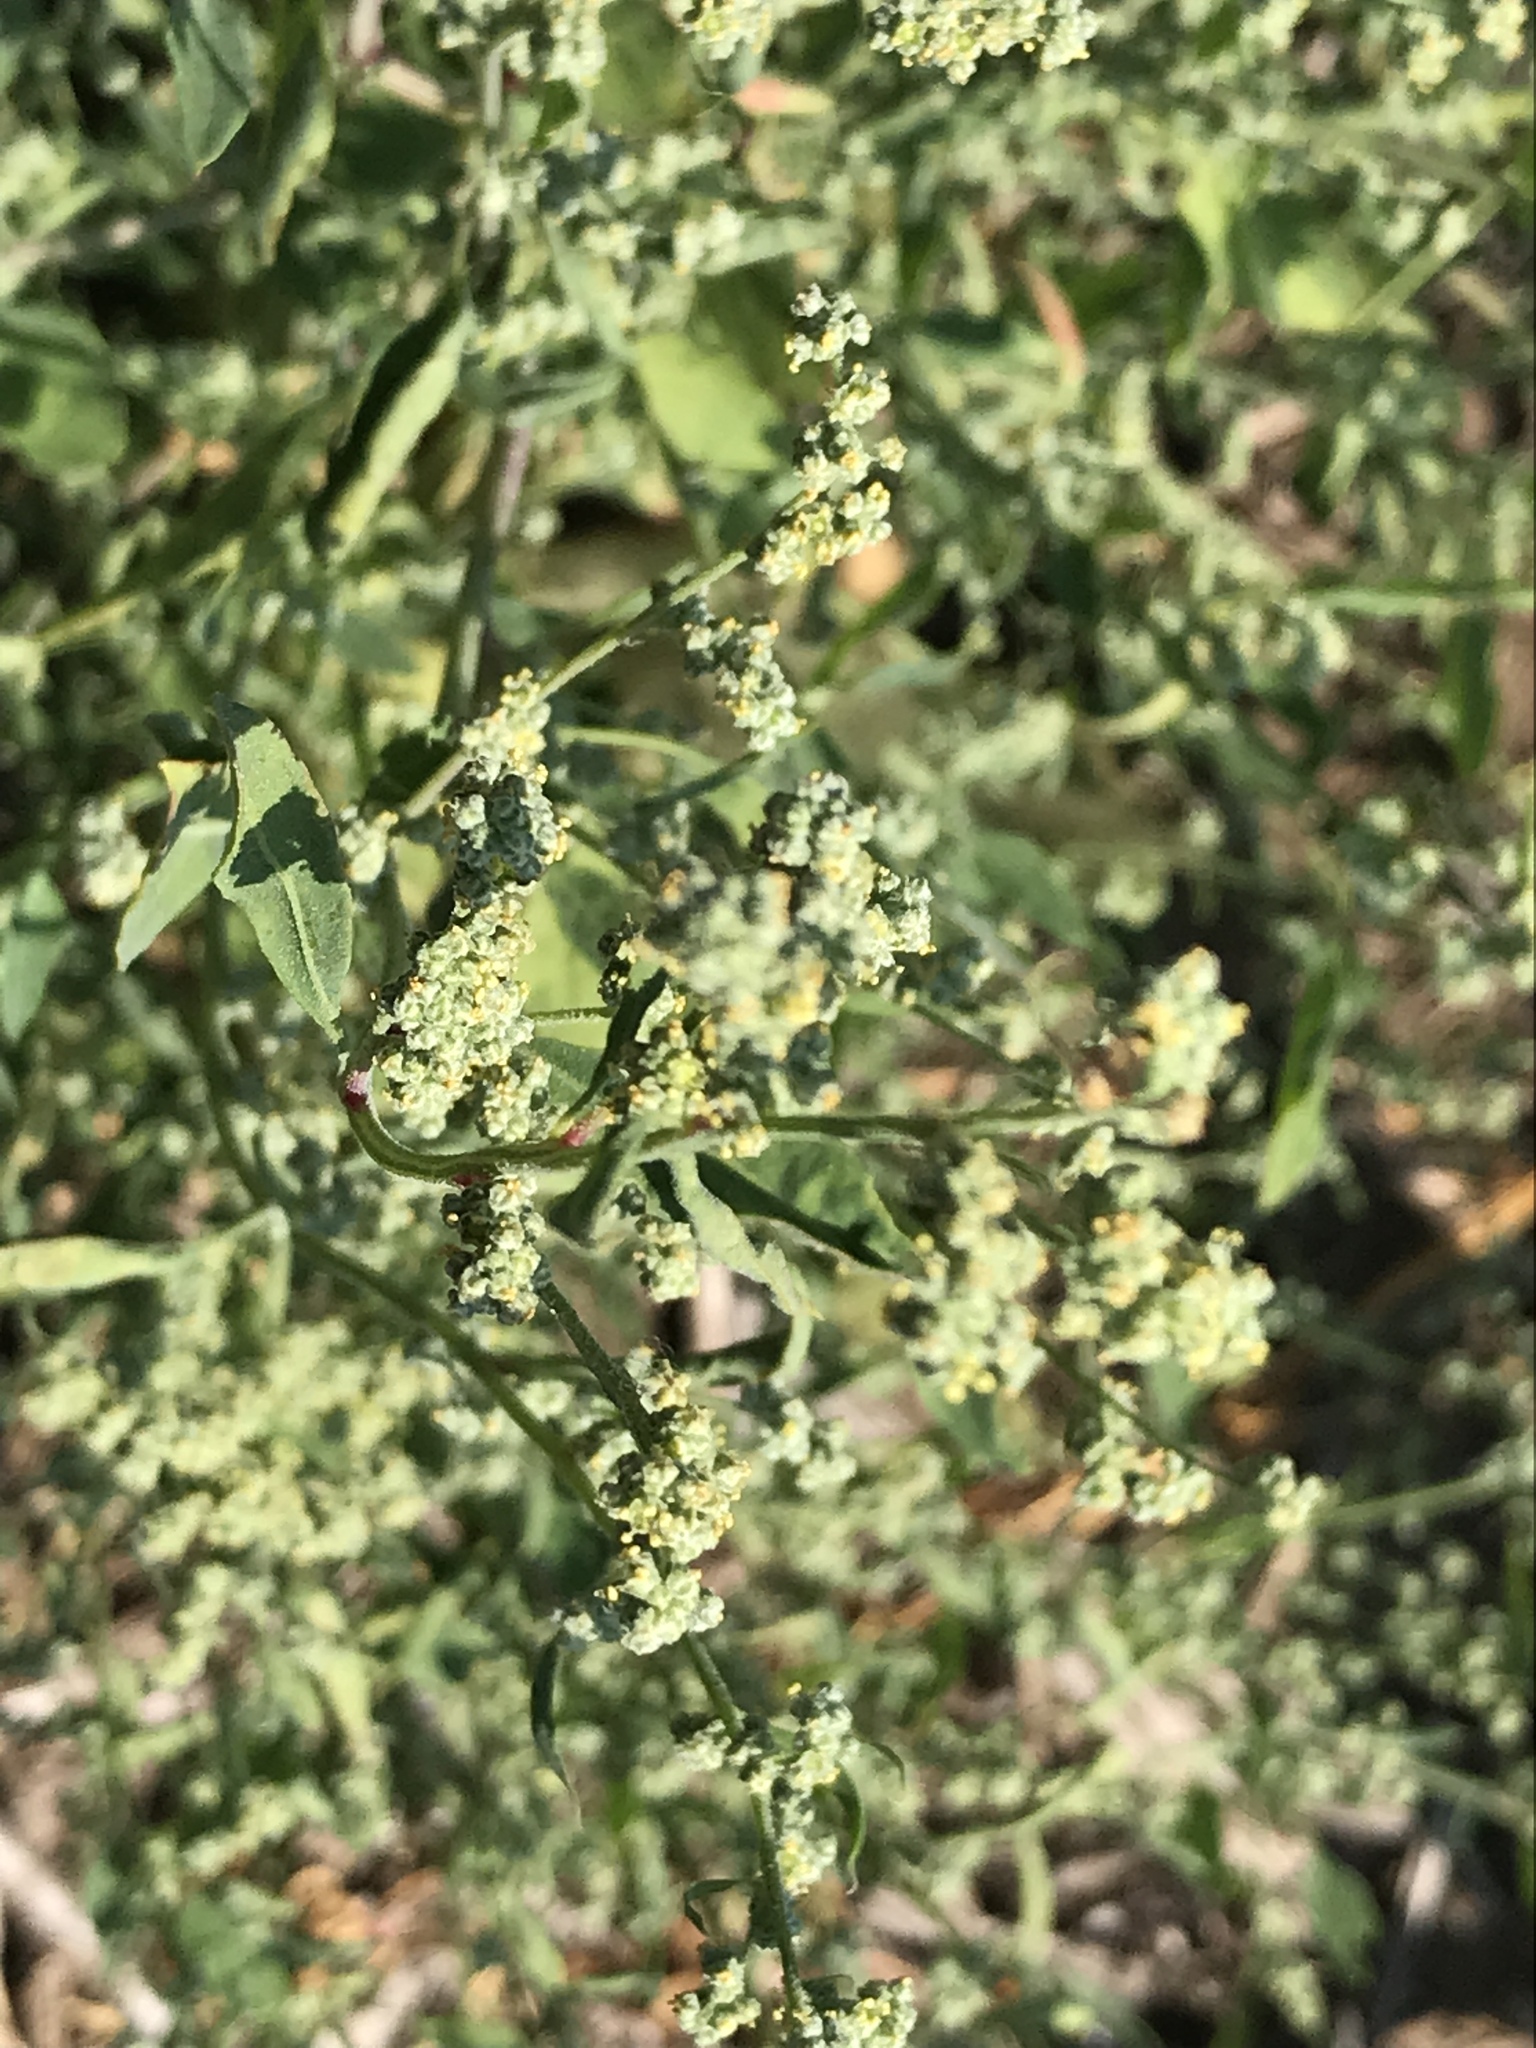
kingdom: Plantae
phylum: Tracheophyta
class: Magnoliopsida
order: Caryophyllales
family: Amaranthaceae
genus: Chenopodium
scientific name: Chenopodium album
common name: Fat-hen
